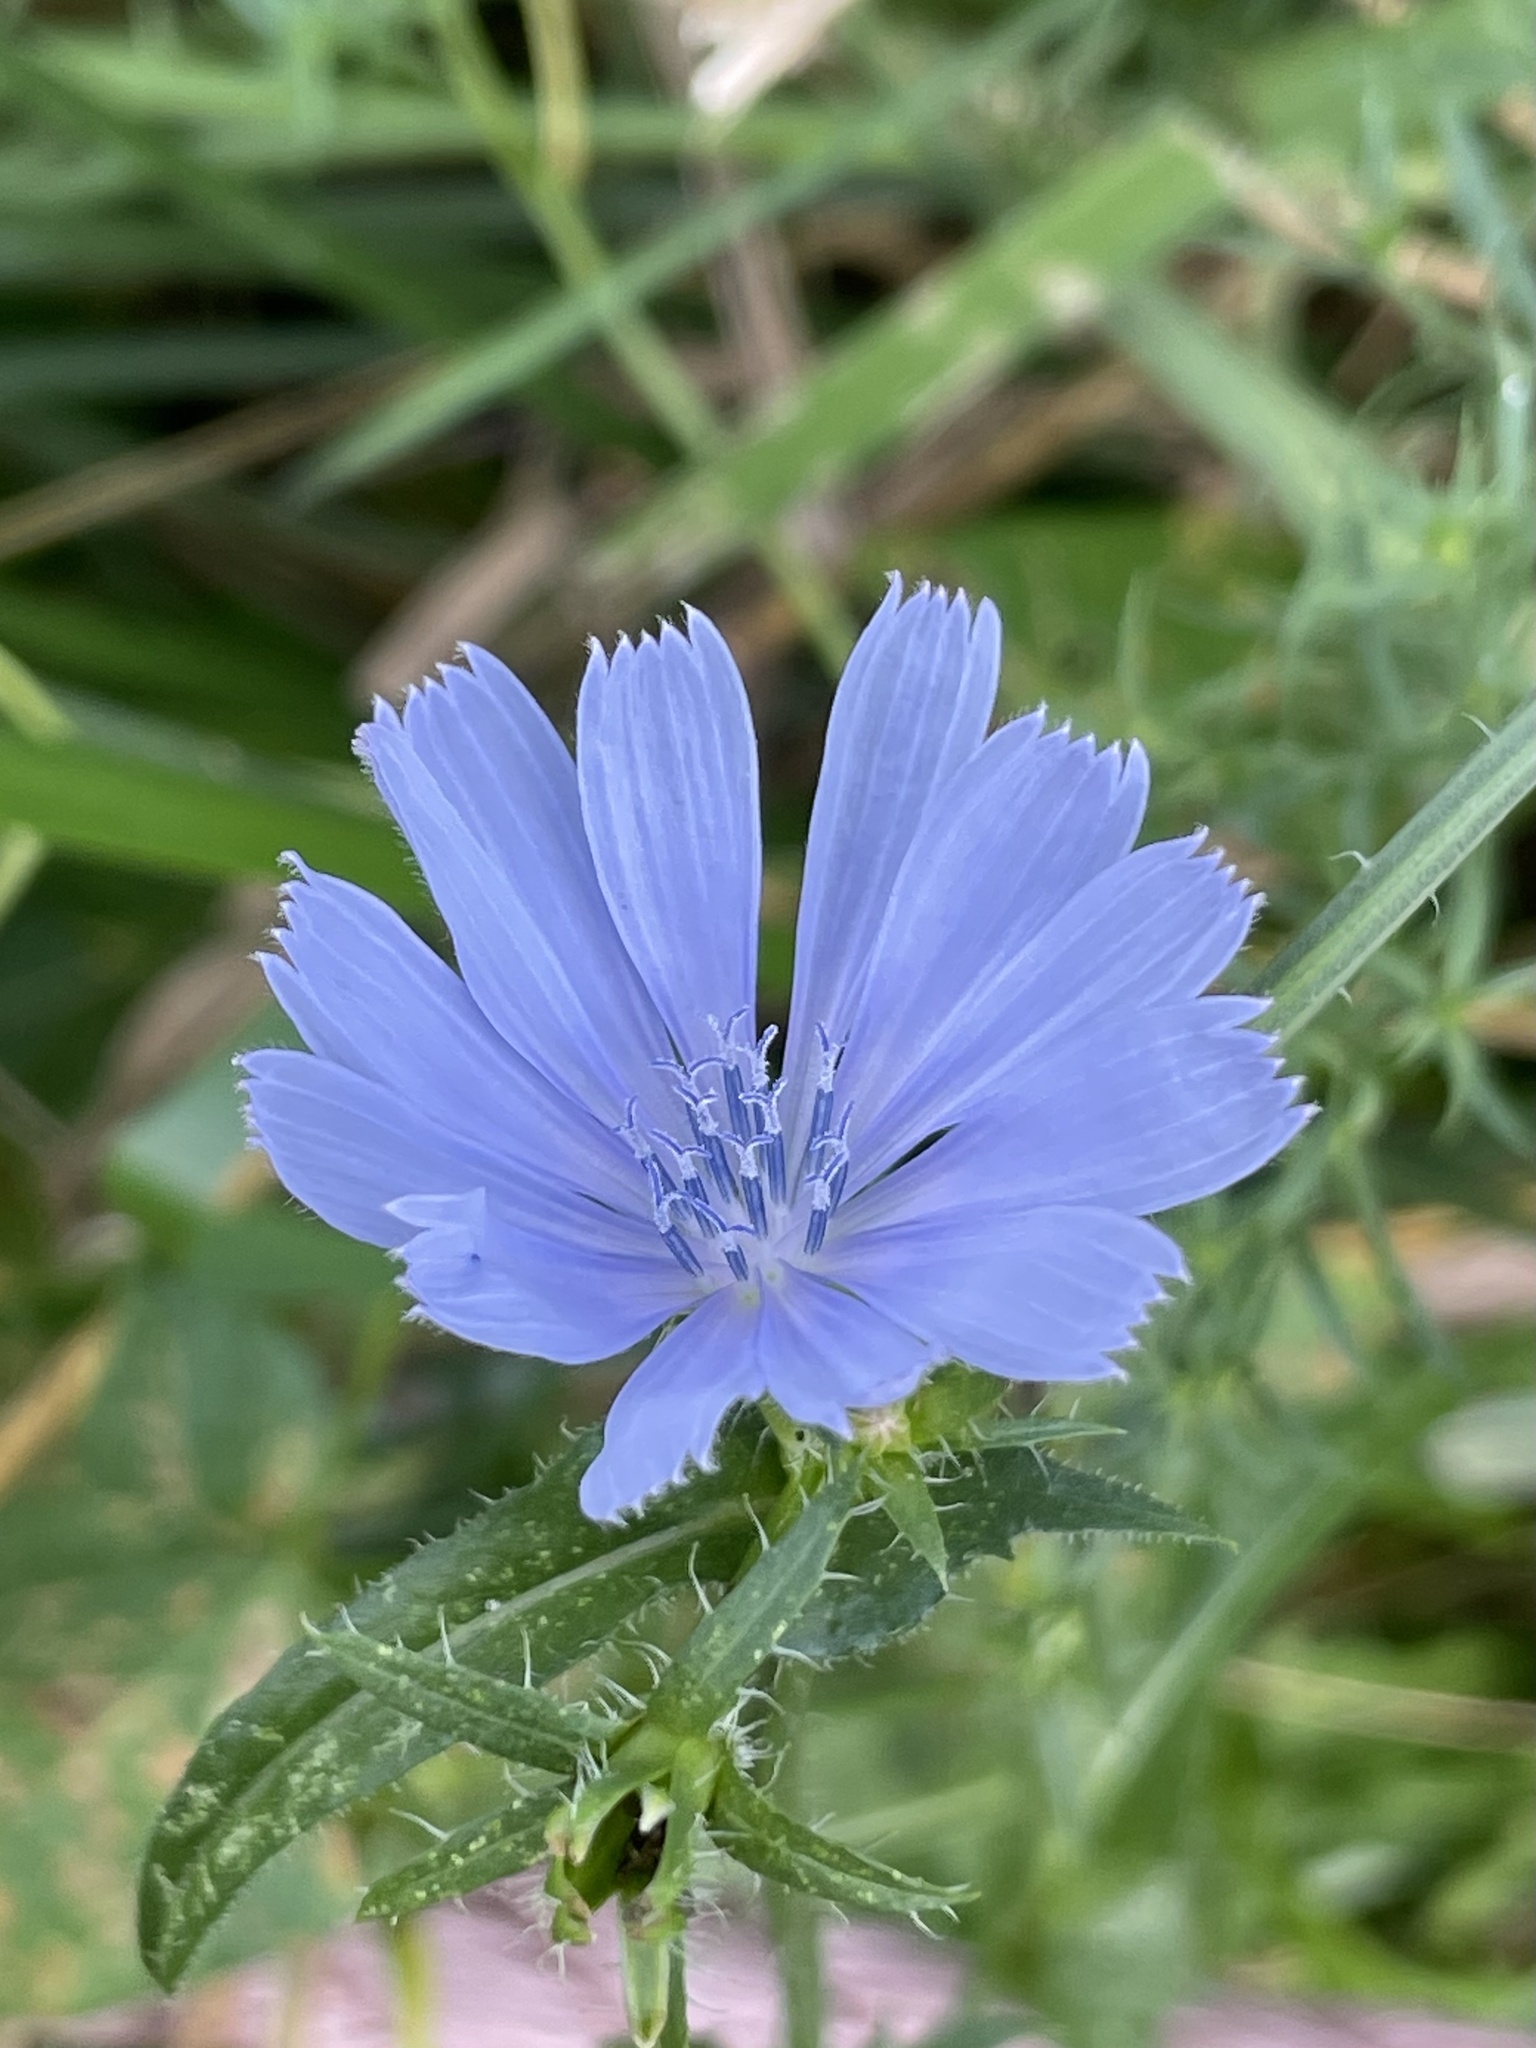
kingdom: Plantae
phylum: Tracheophyta
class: Magnoliopsida
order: Asterales
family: Asteraceae
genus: Cichorium
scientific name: Cichorium intybus
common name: Chicory
